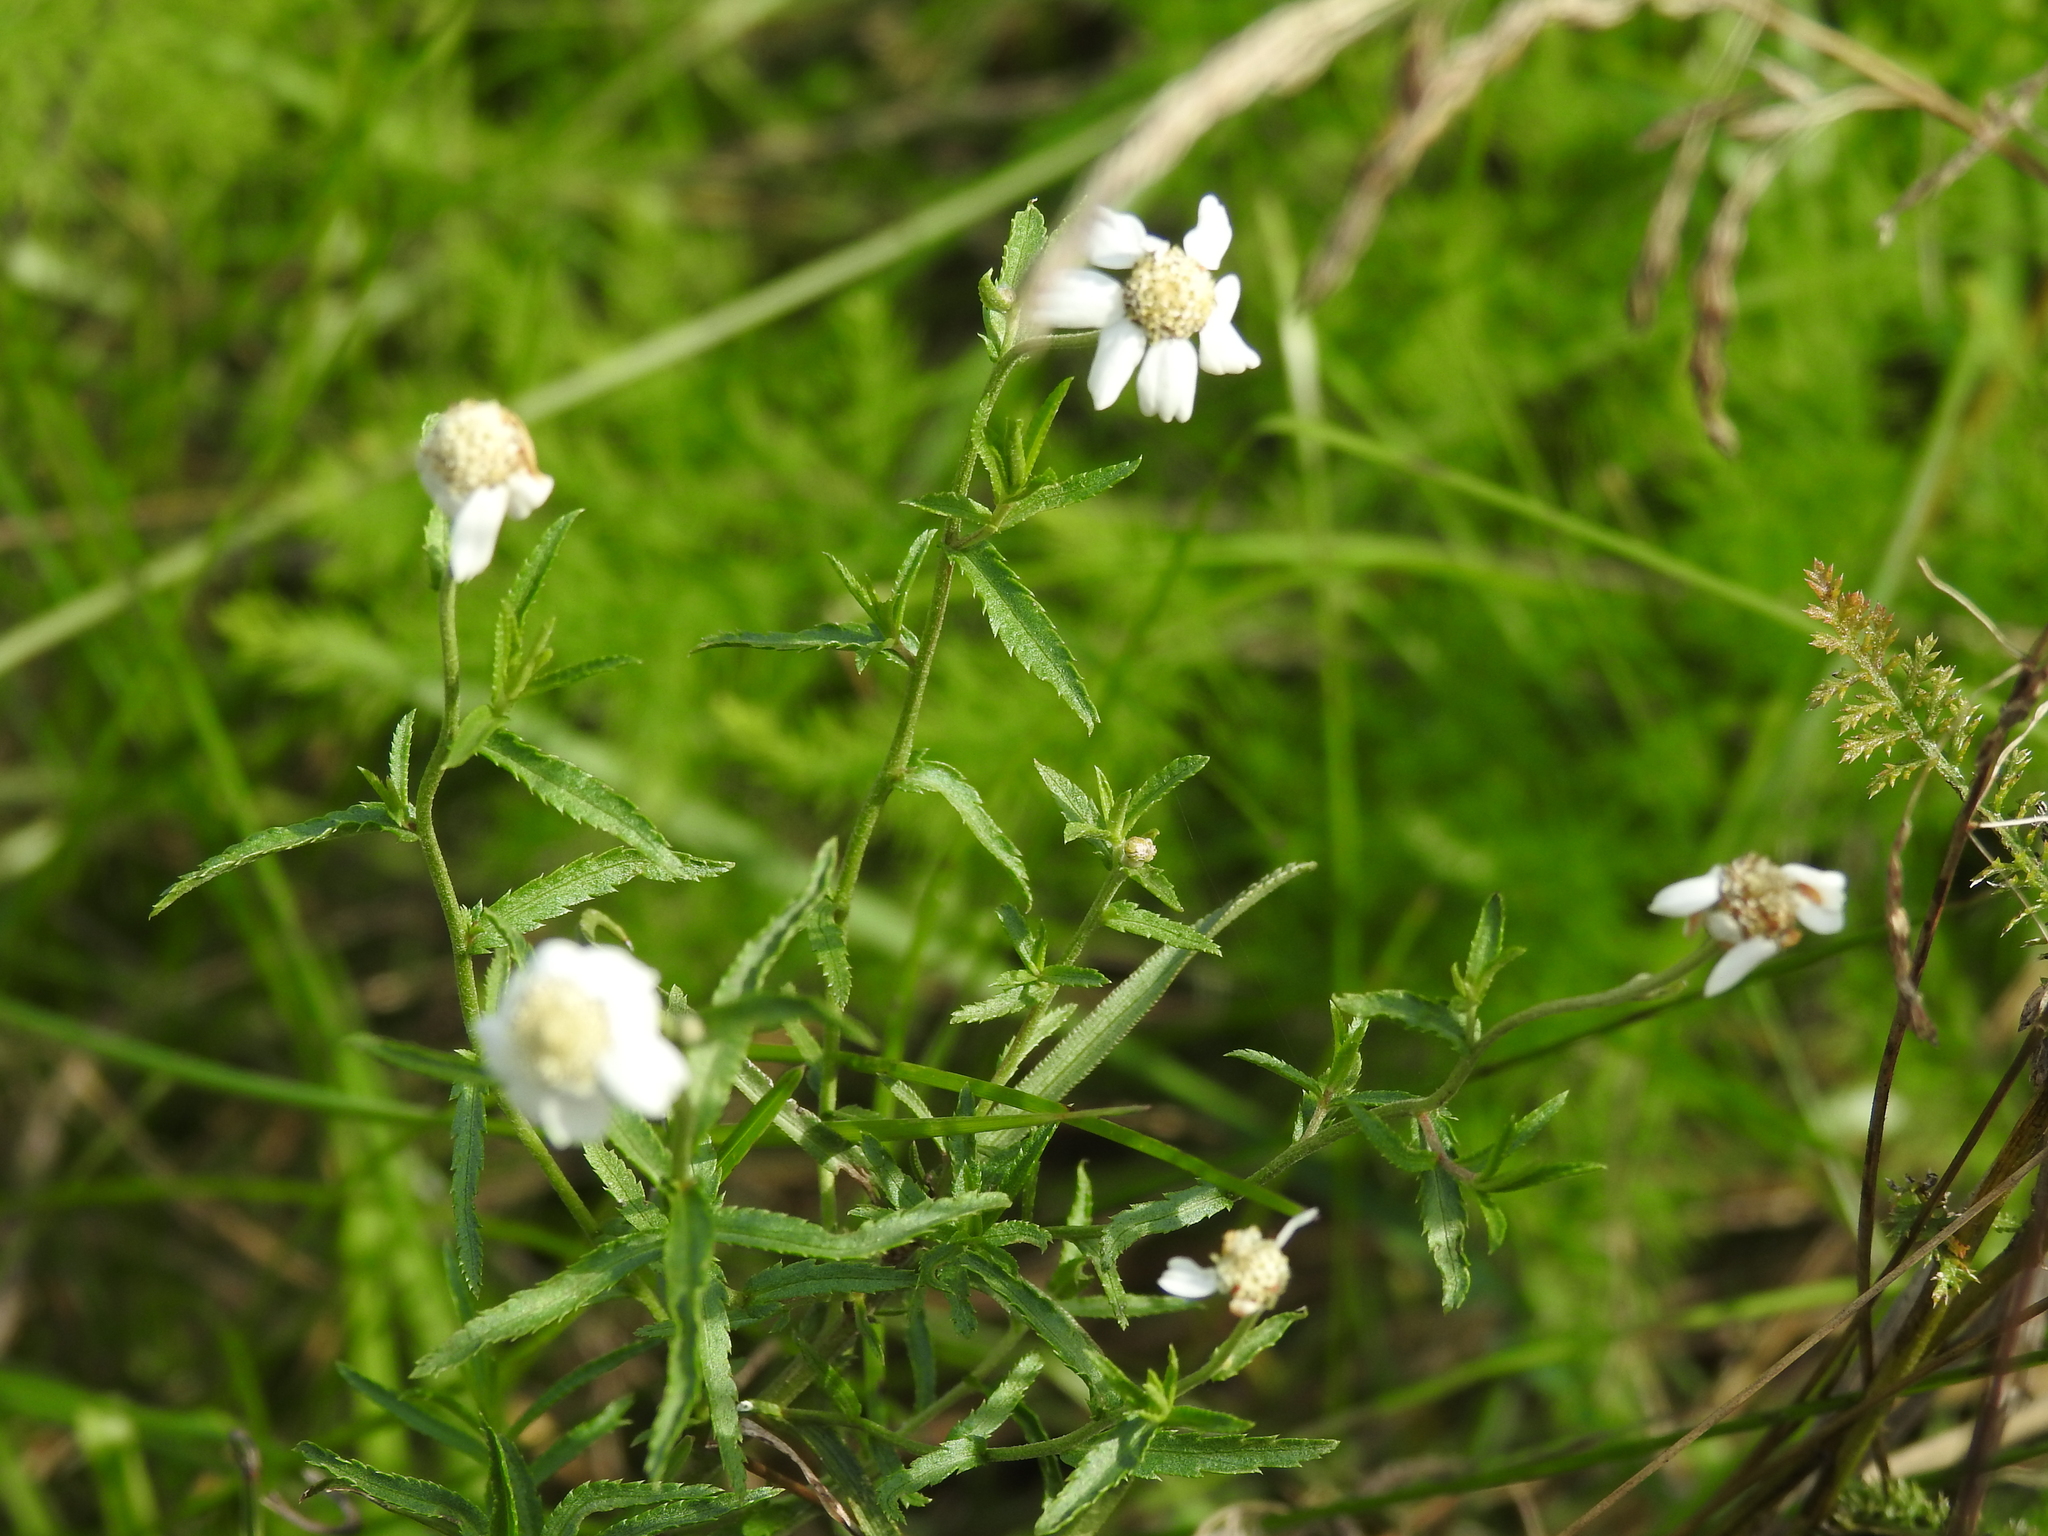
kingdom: Plantae
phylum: Tracheophyta
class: Magnoliopsida
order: Asterales
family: Asteraceae
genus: Achillea
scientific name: Achillea ptarmica
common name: Sneezeweed
